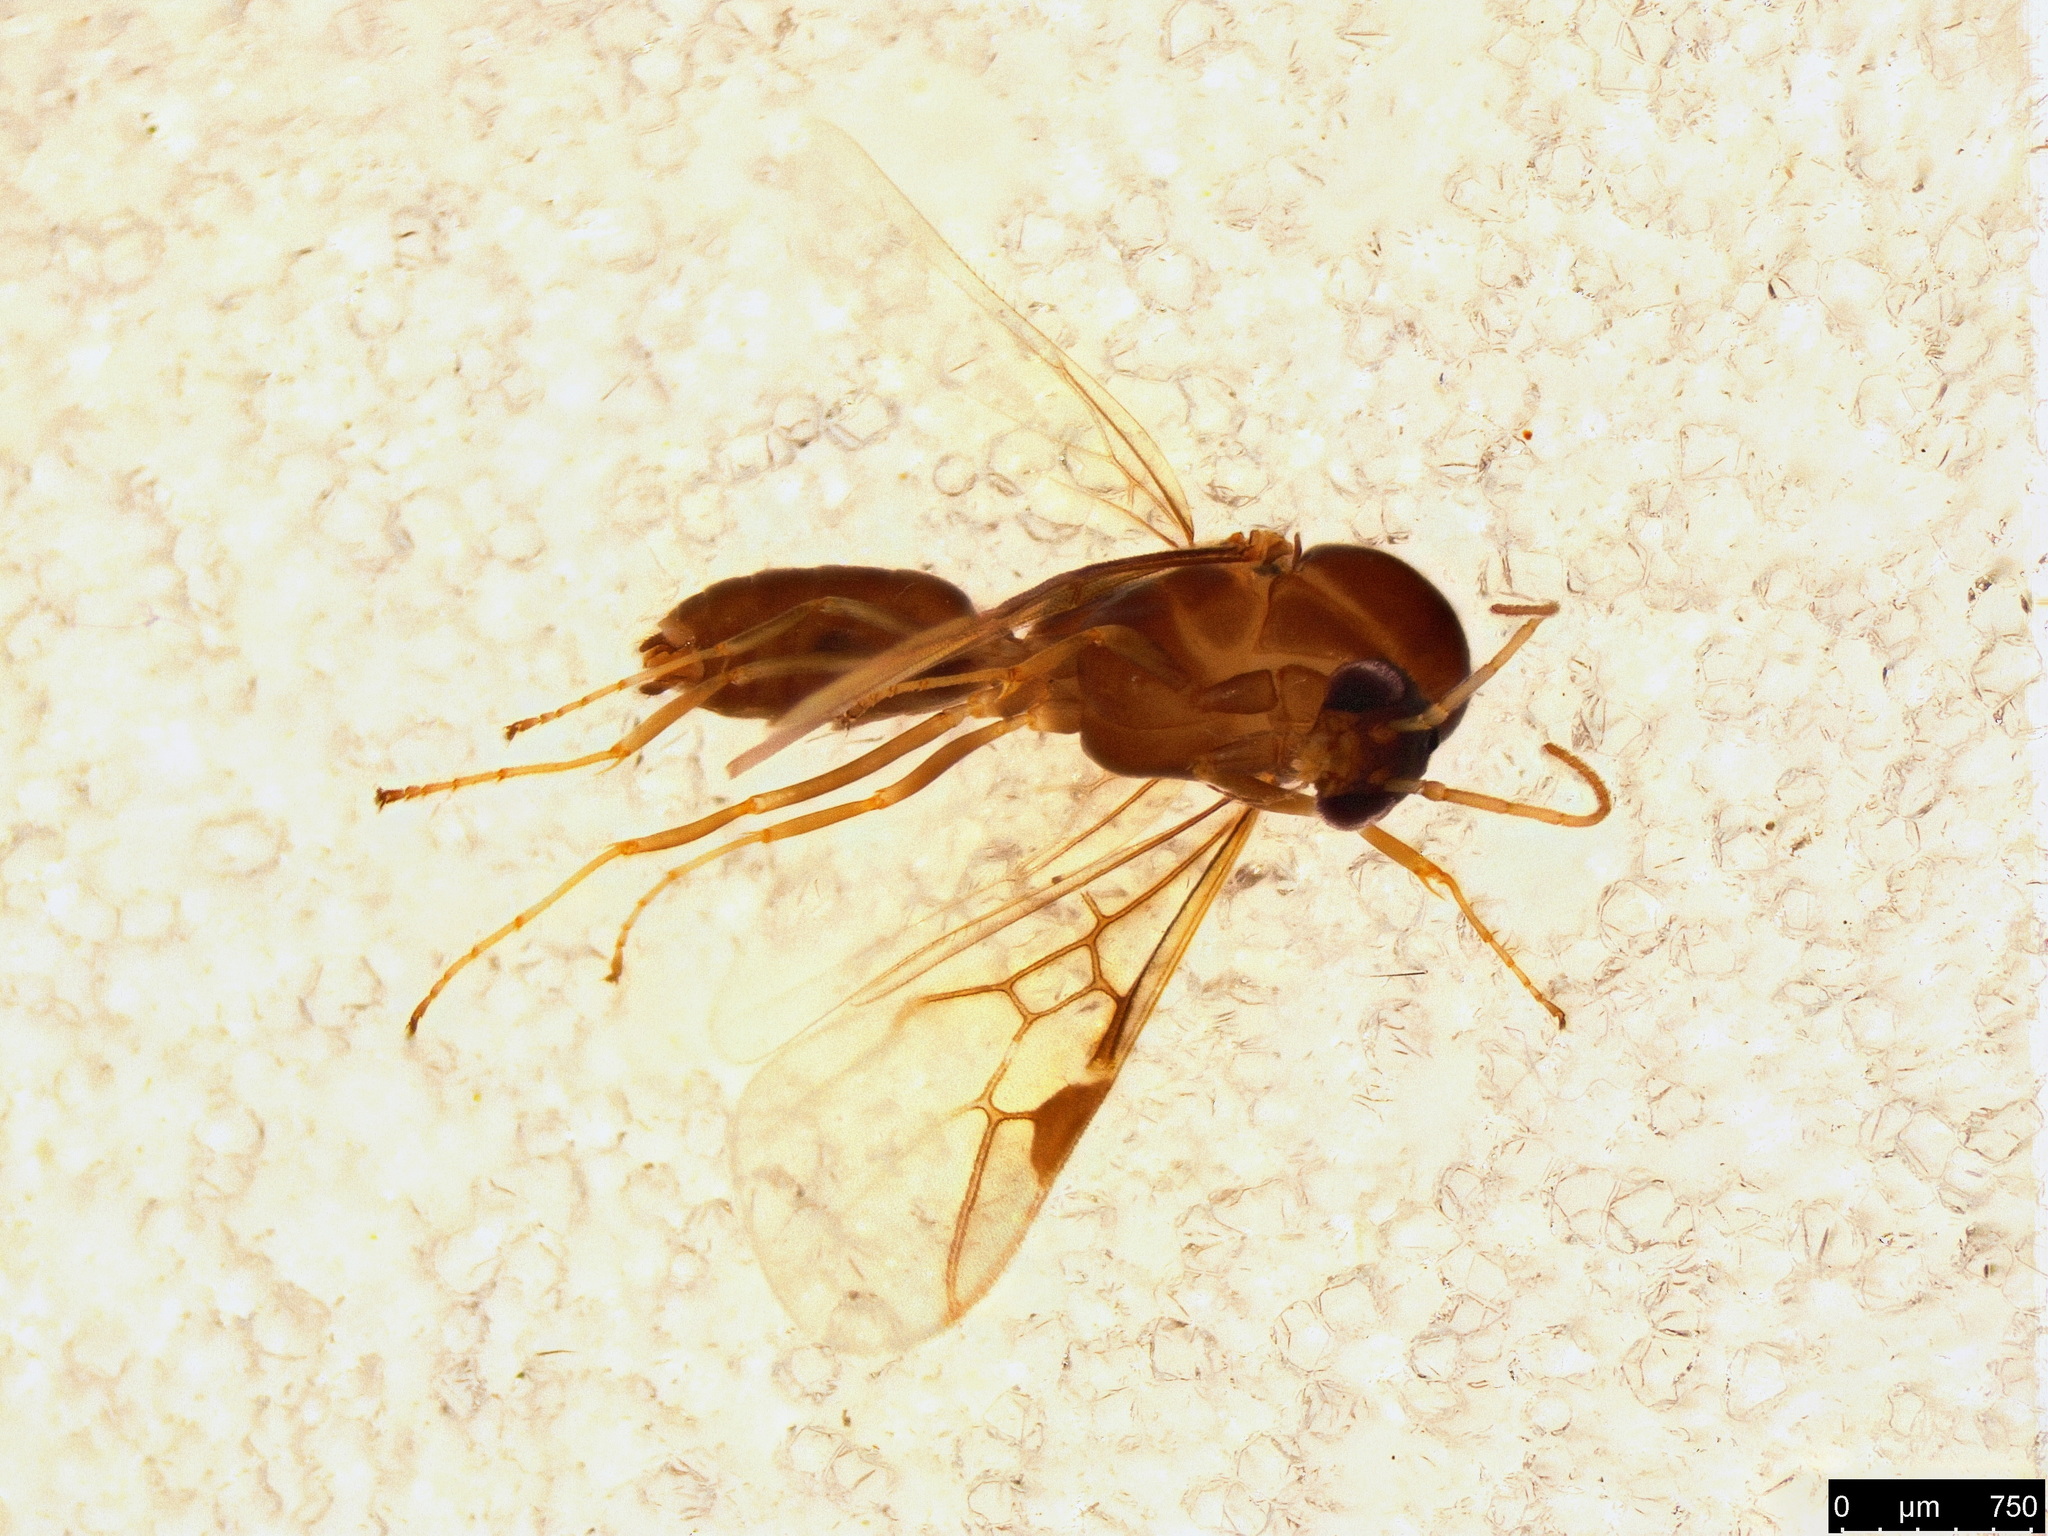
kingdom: Animalia
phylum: Arthropoda
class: Insecta
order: Hymenoptera
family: Formicidae
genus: Linepithema
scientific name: Linepithema humile
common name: Argentine ant
